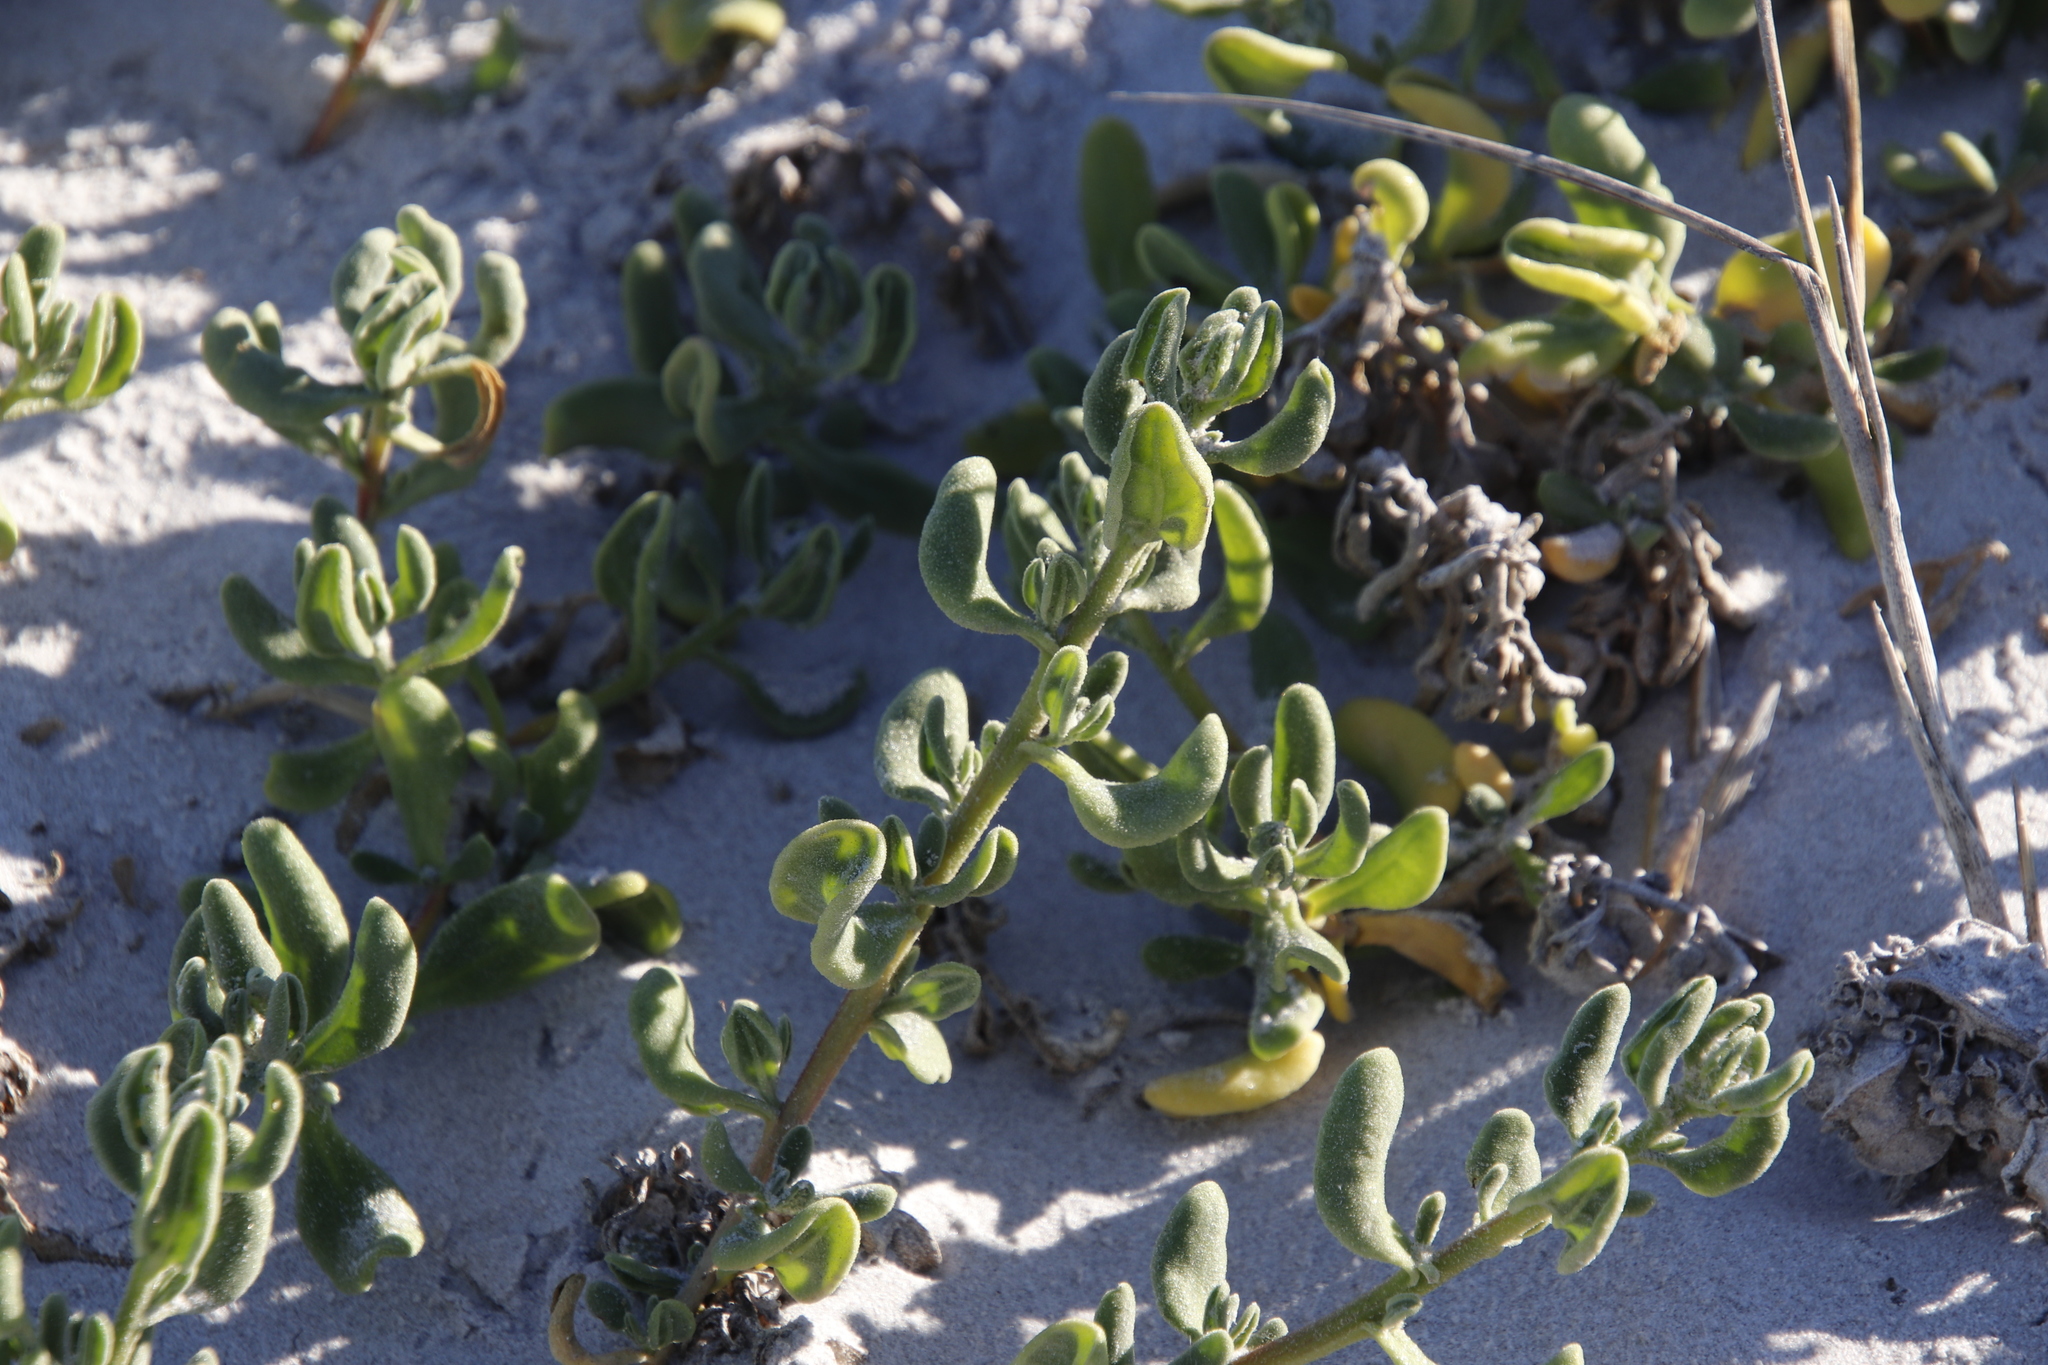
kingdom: Plantae
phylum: Tracheophyta
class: Magnoliopsida
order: Caryophyllales
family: Aizoaceae
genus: Tetragonia
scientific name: Tetragonia decumbens
